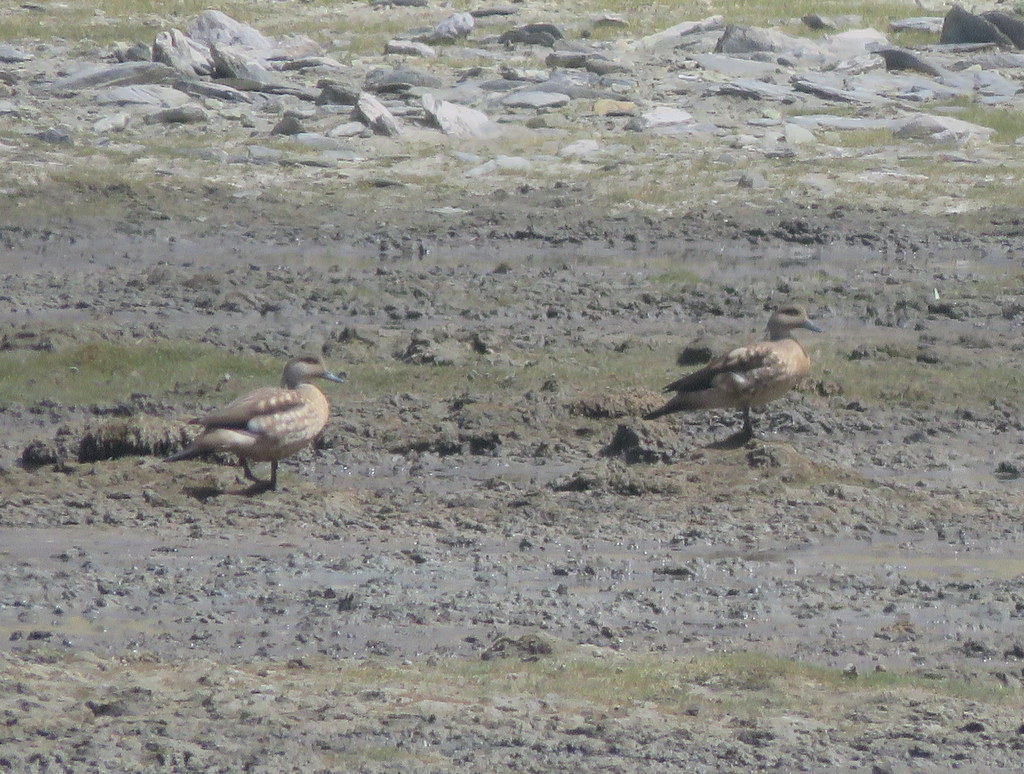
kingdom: Animalia
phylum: Chordata
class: Aves
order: Anseriformes
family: Anatidae
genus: Lophonetta
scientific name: Lophonetta specularioides
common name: Crested duck
